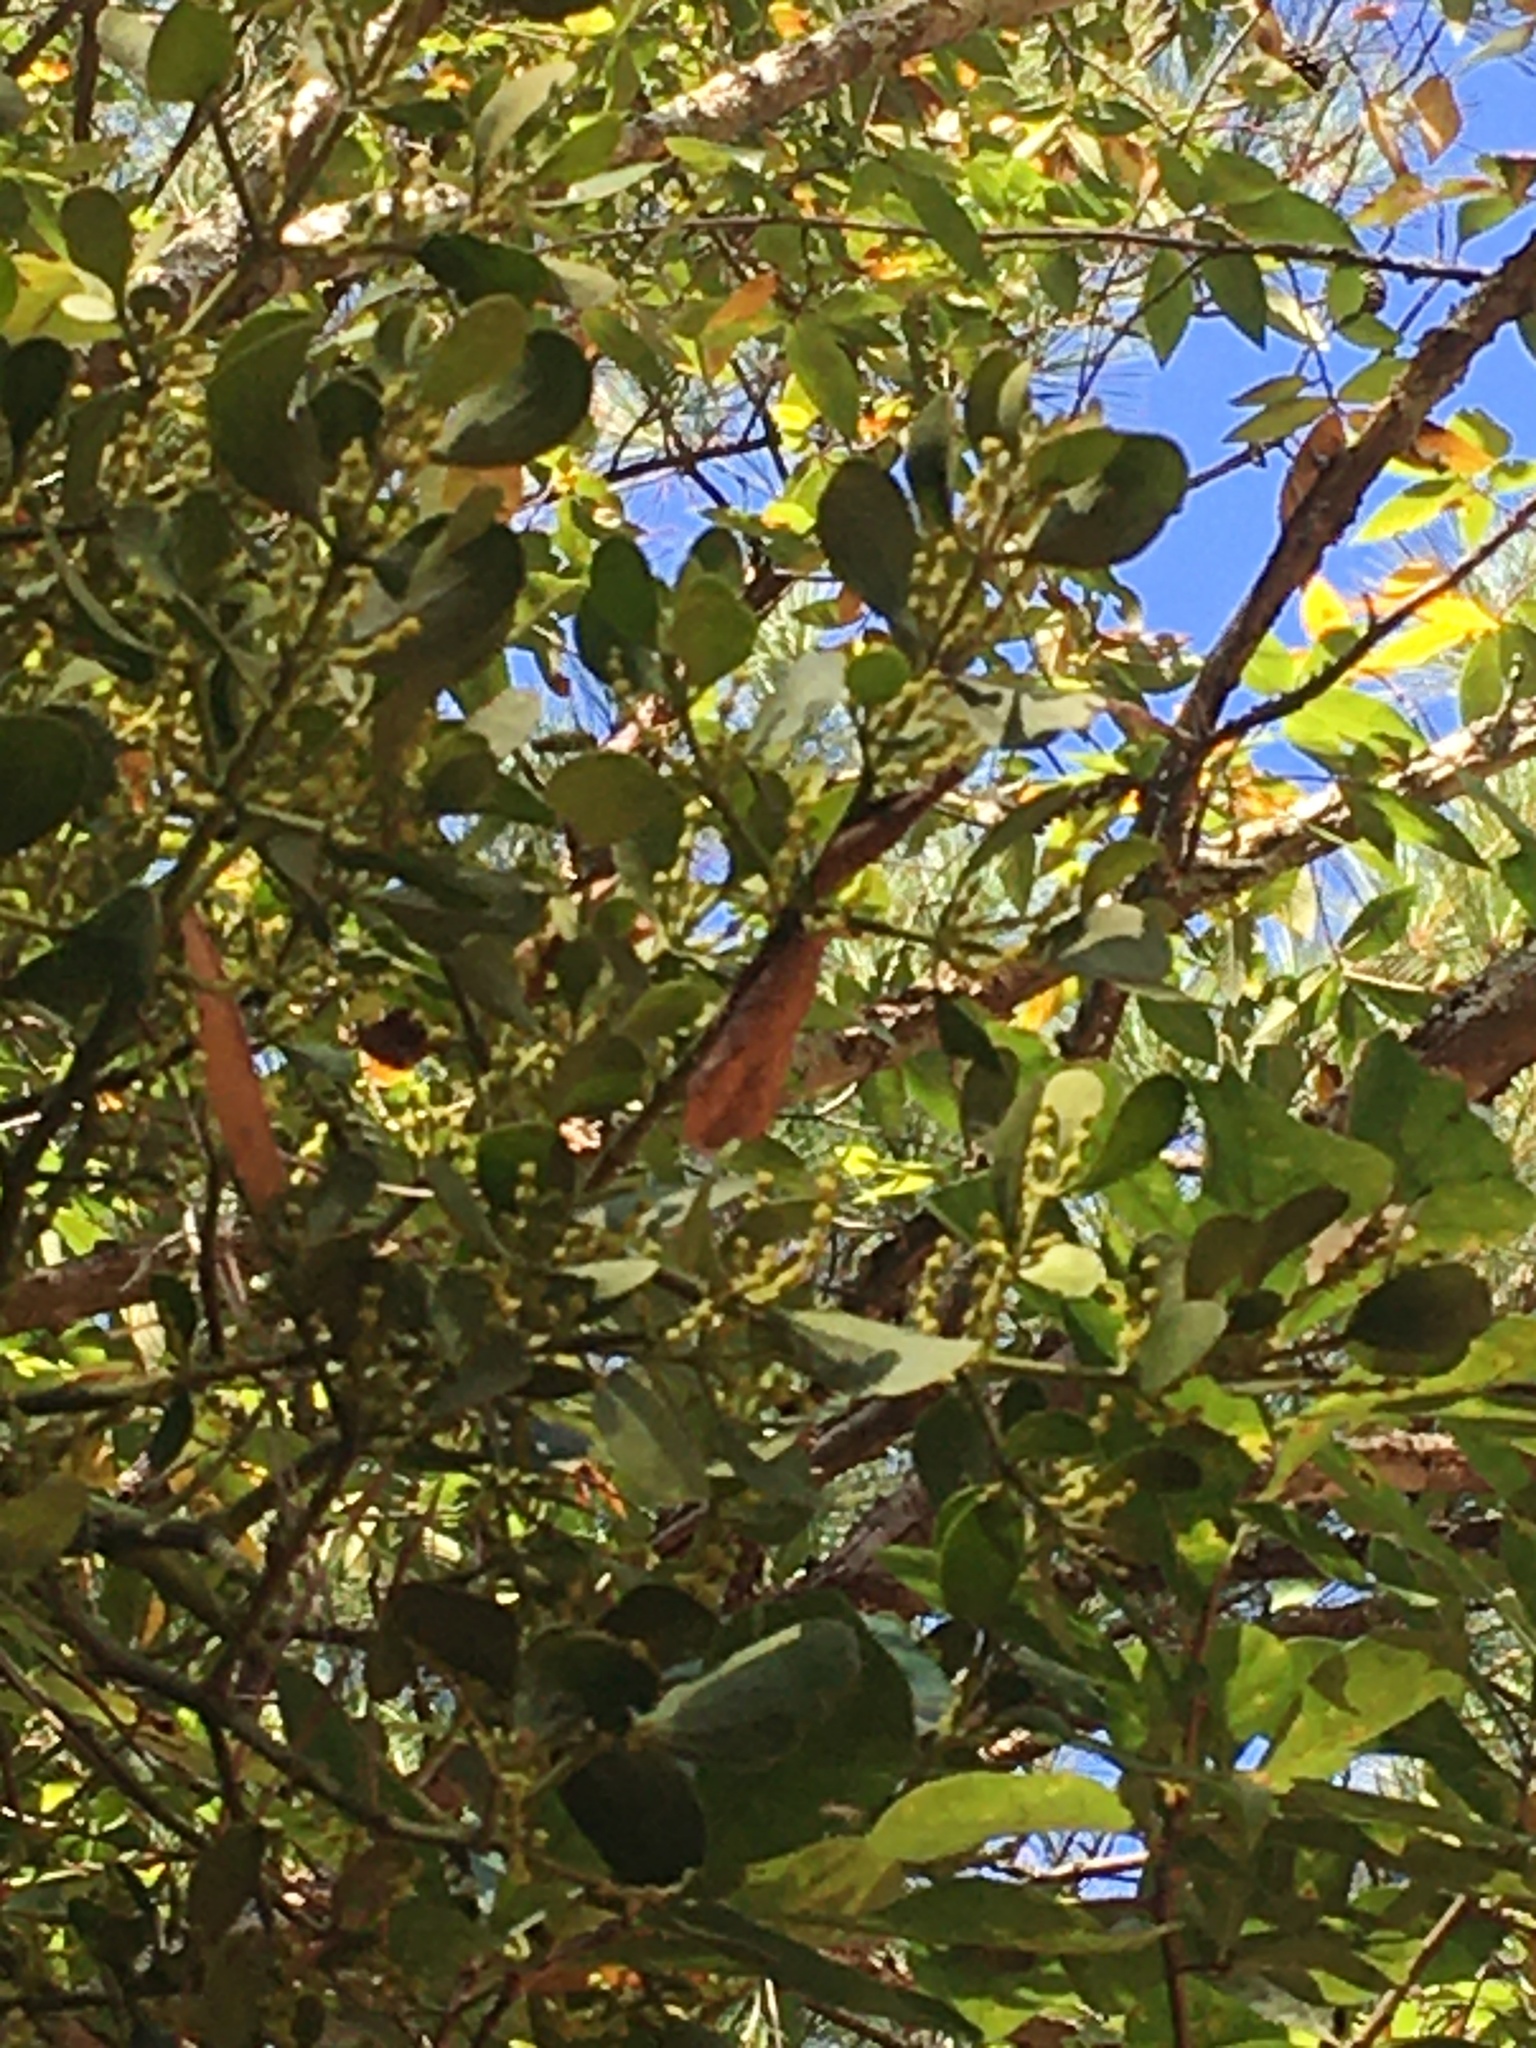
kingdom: Plantae
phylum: Tracheophyta
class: Magnoliopsida
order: Santalales
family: Viscaceae
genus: Phoradendron
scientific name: Phoradendron leucarpum
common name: Pacific mistletoe
